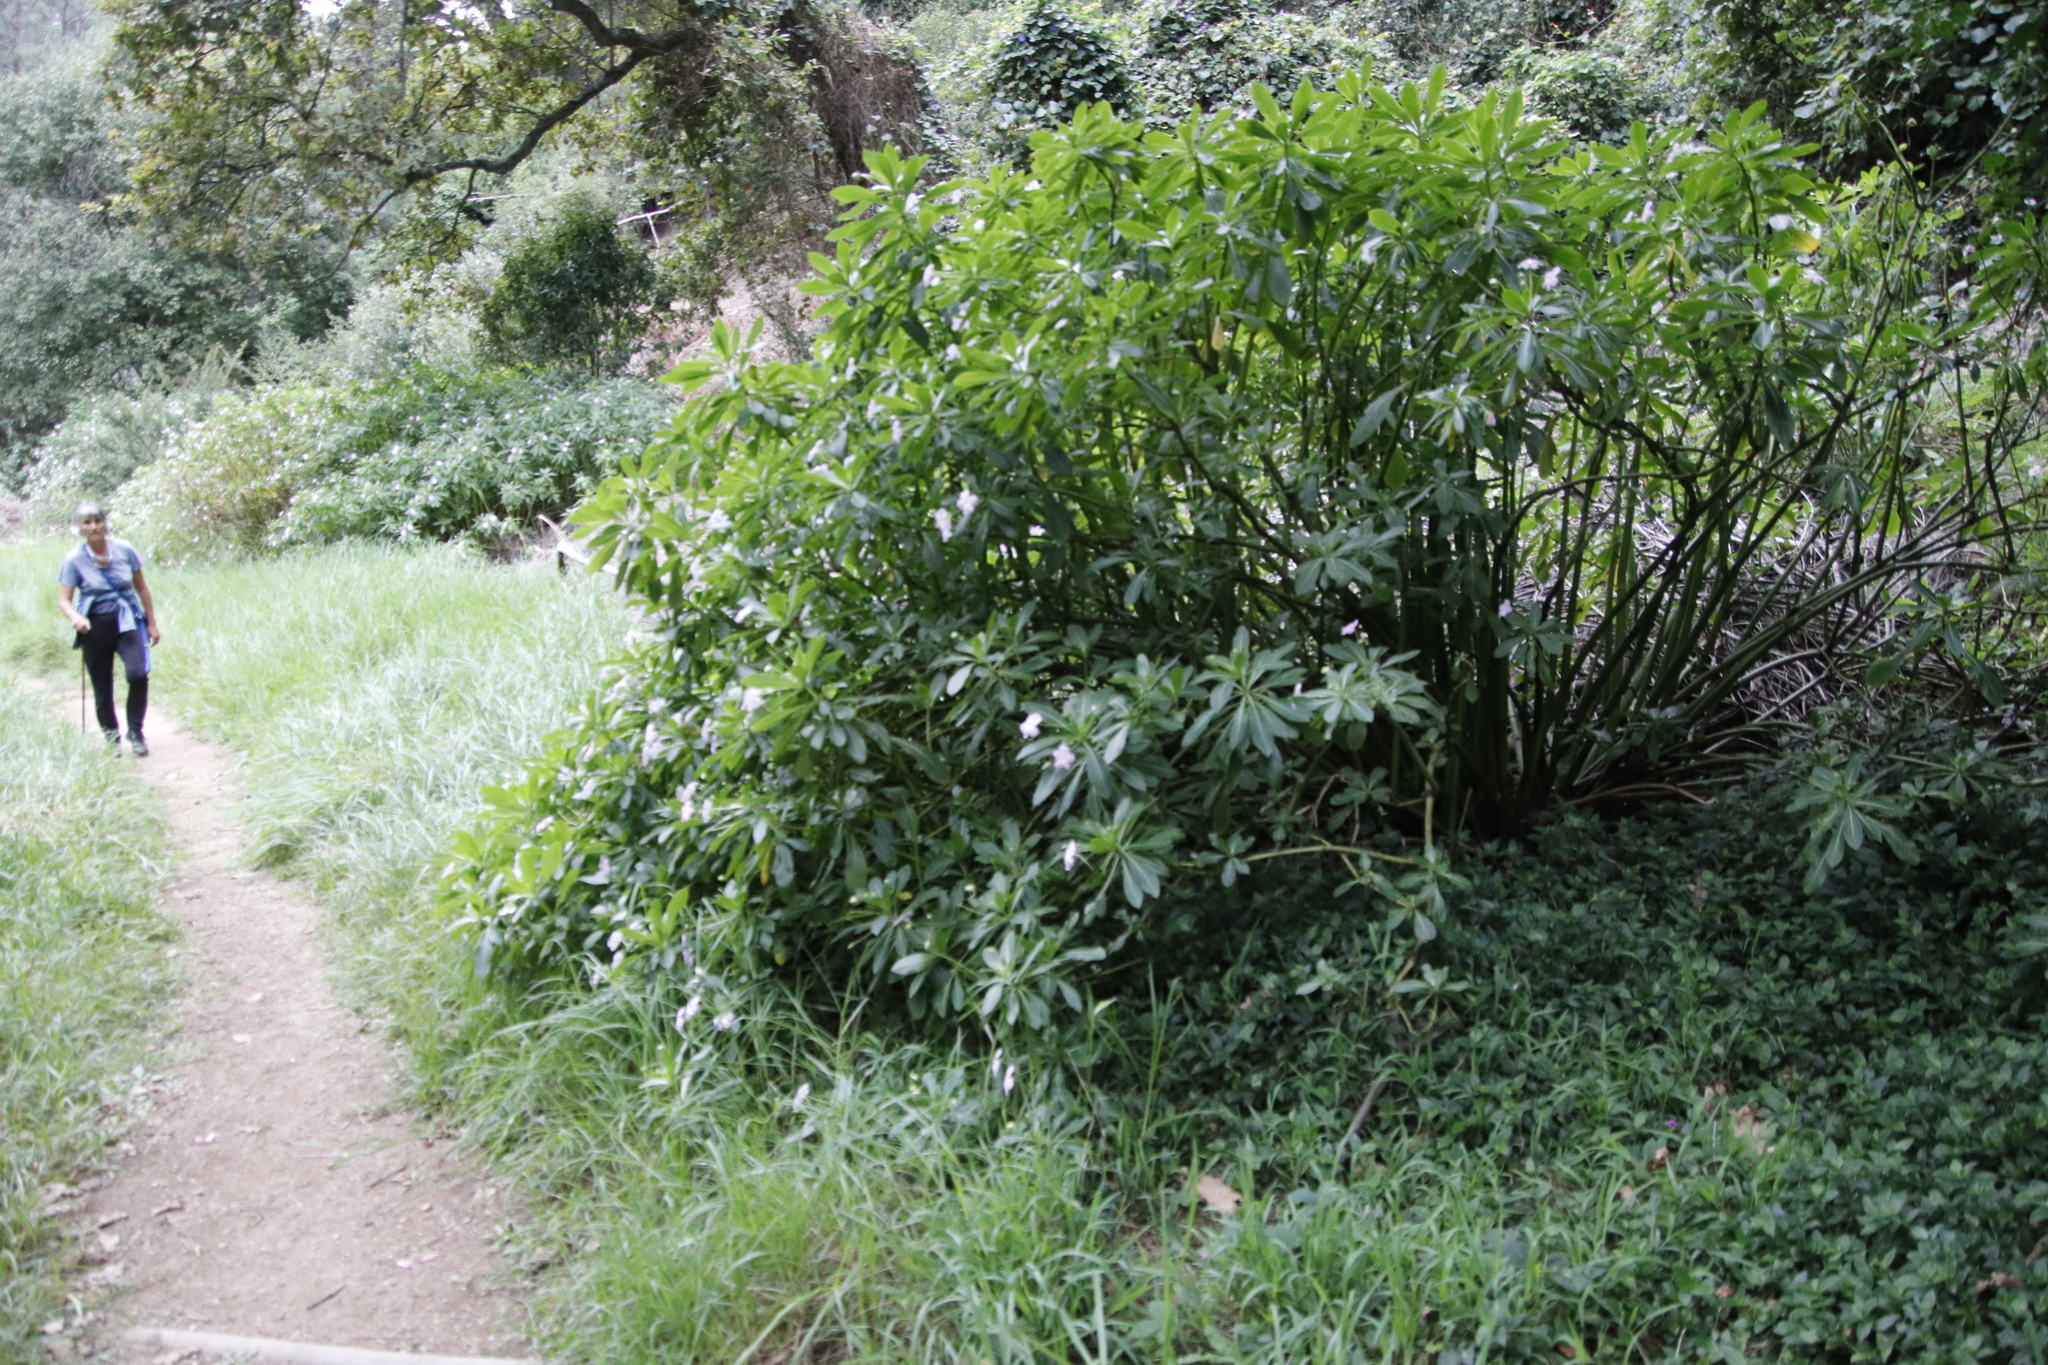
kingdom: Plantae
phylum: Tracheophyta
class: Magnoliopsida
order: Ericales
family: Balsaminaceae
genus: Impatiens
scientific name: Impatiens sodenii
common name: Oliver's touch-me-not
